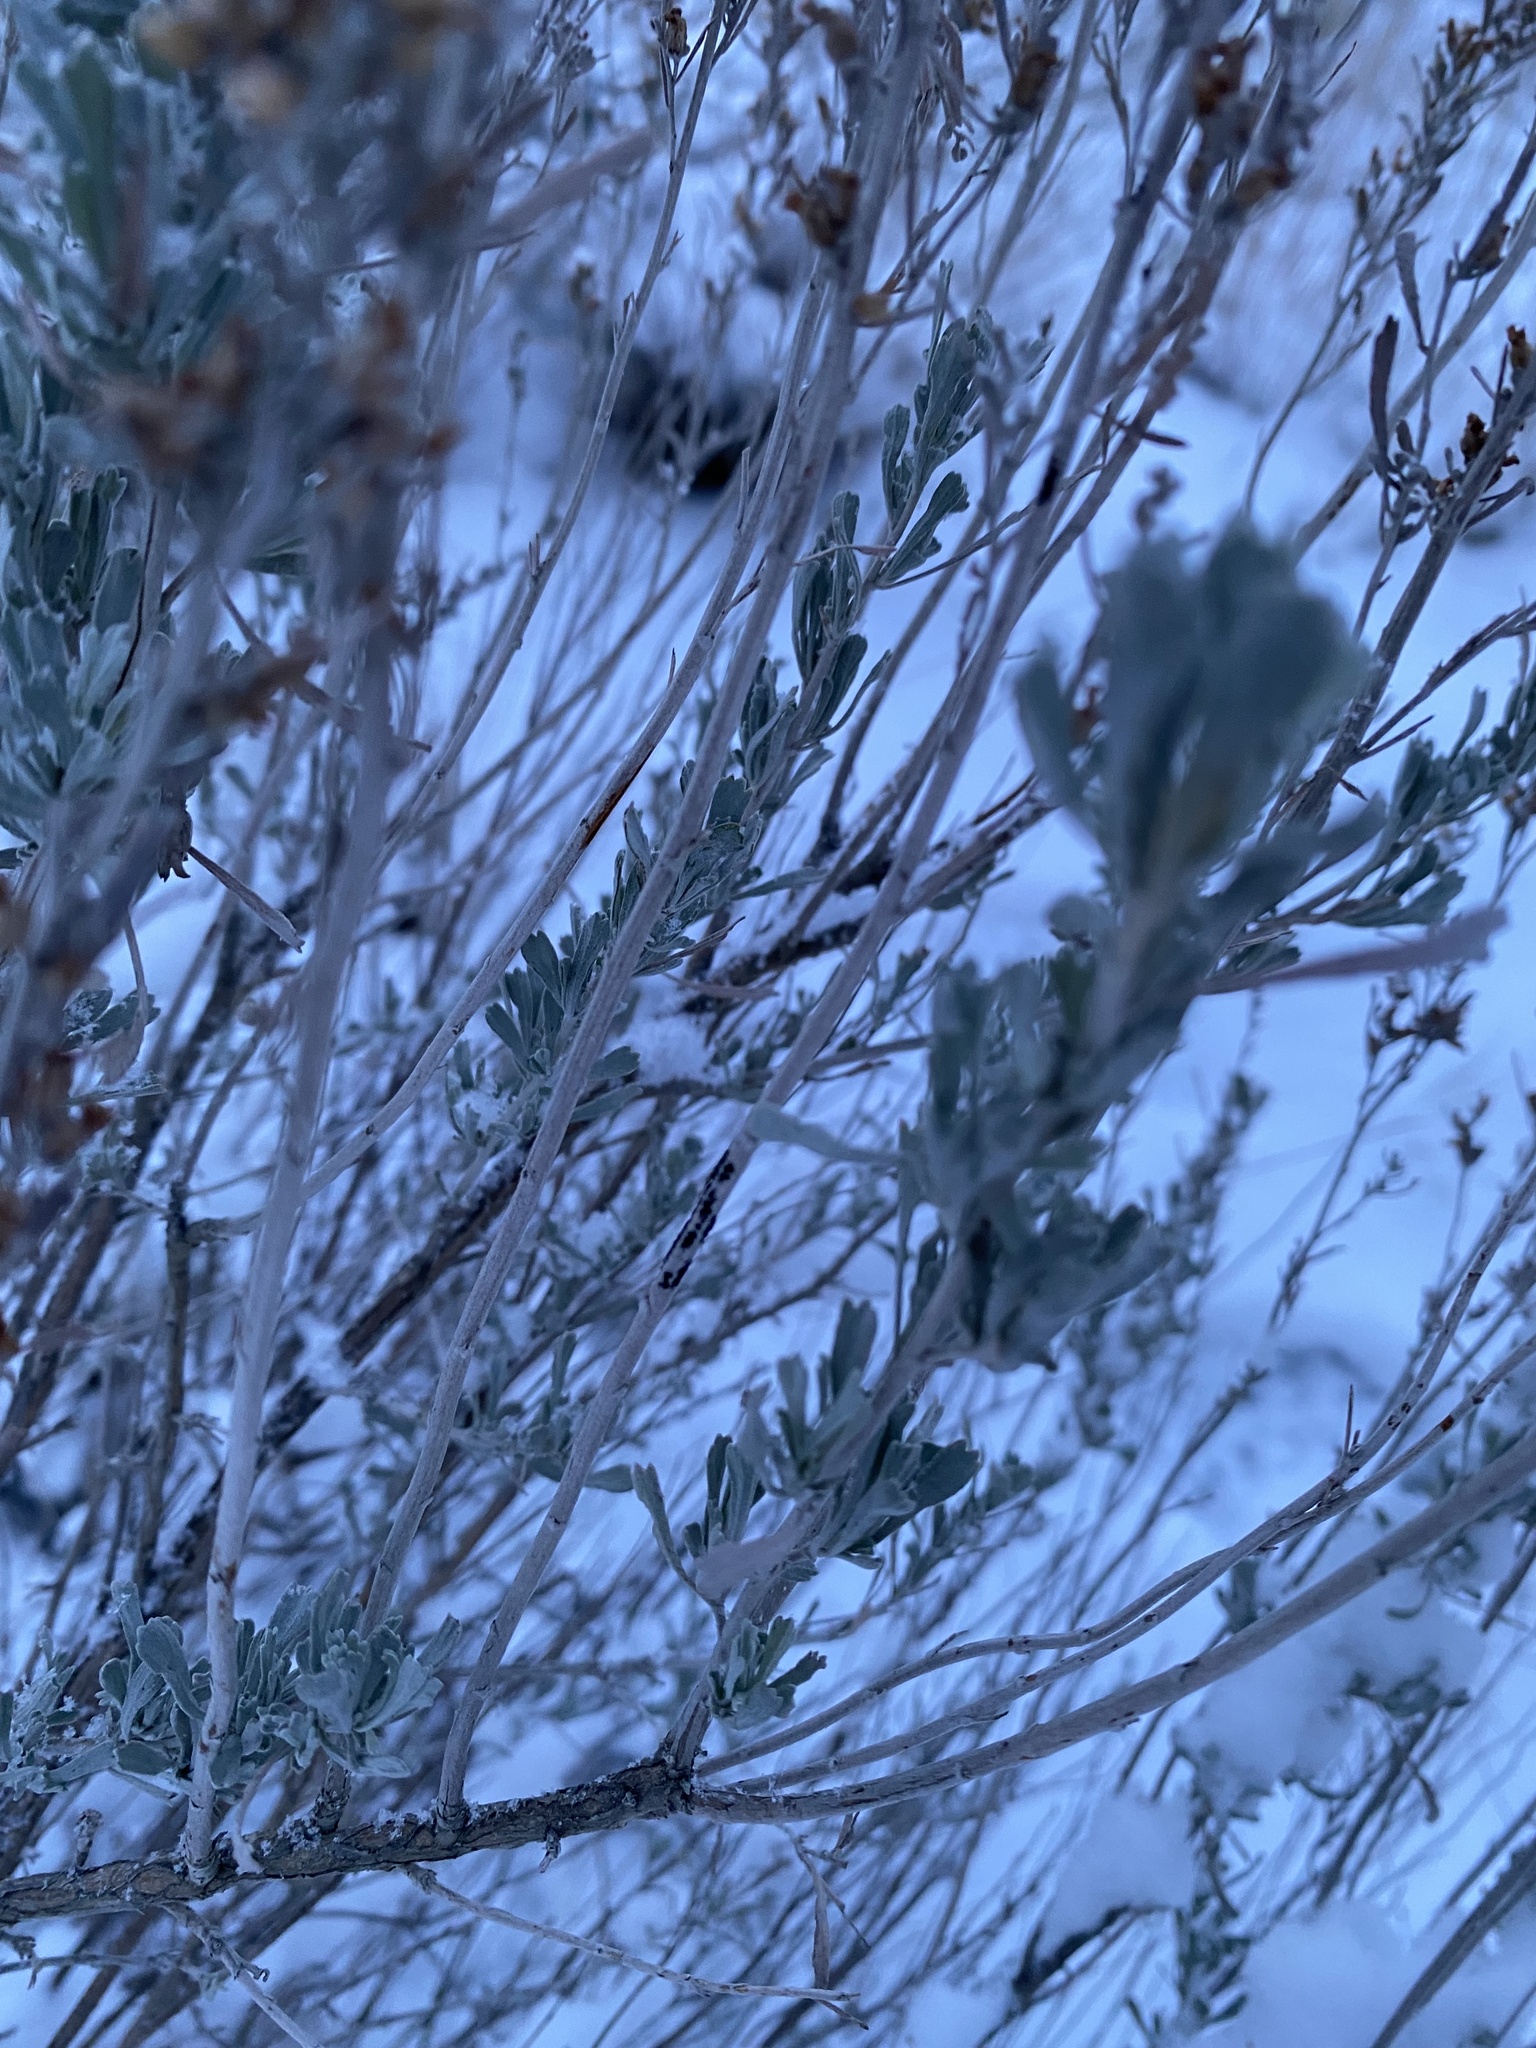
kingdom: Plantae
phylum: Tracheophyta
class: Magnoliopsida
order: Asterales
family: Asteraceae
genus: Artemisia
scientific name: Artemisia tridentata
